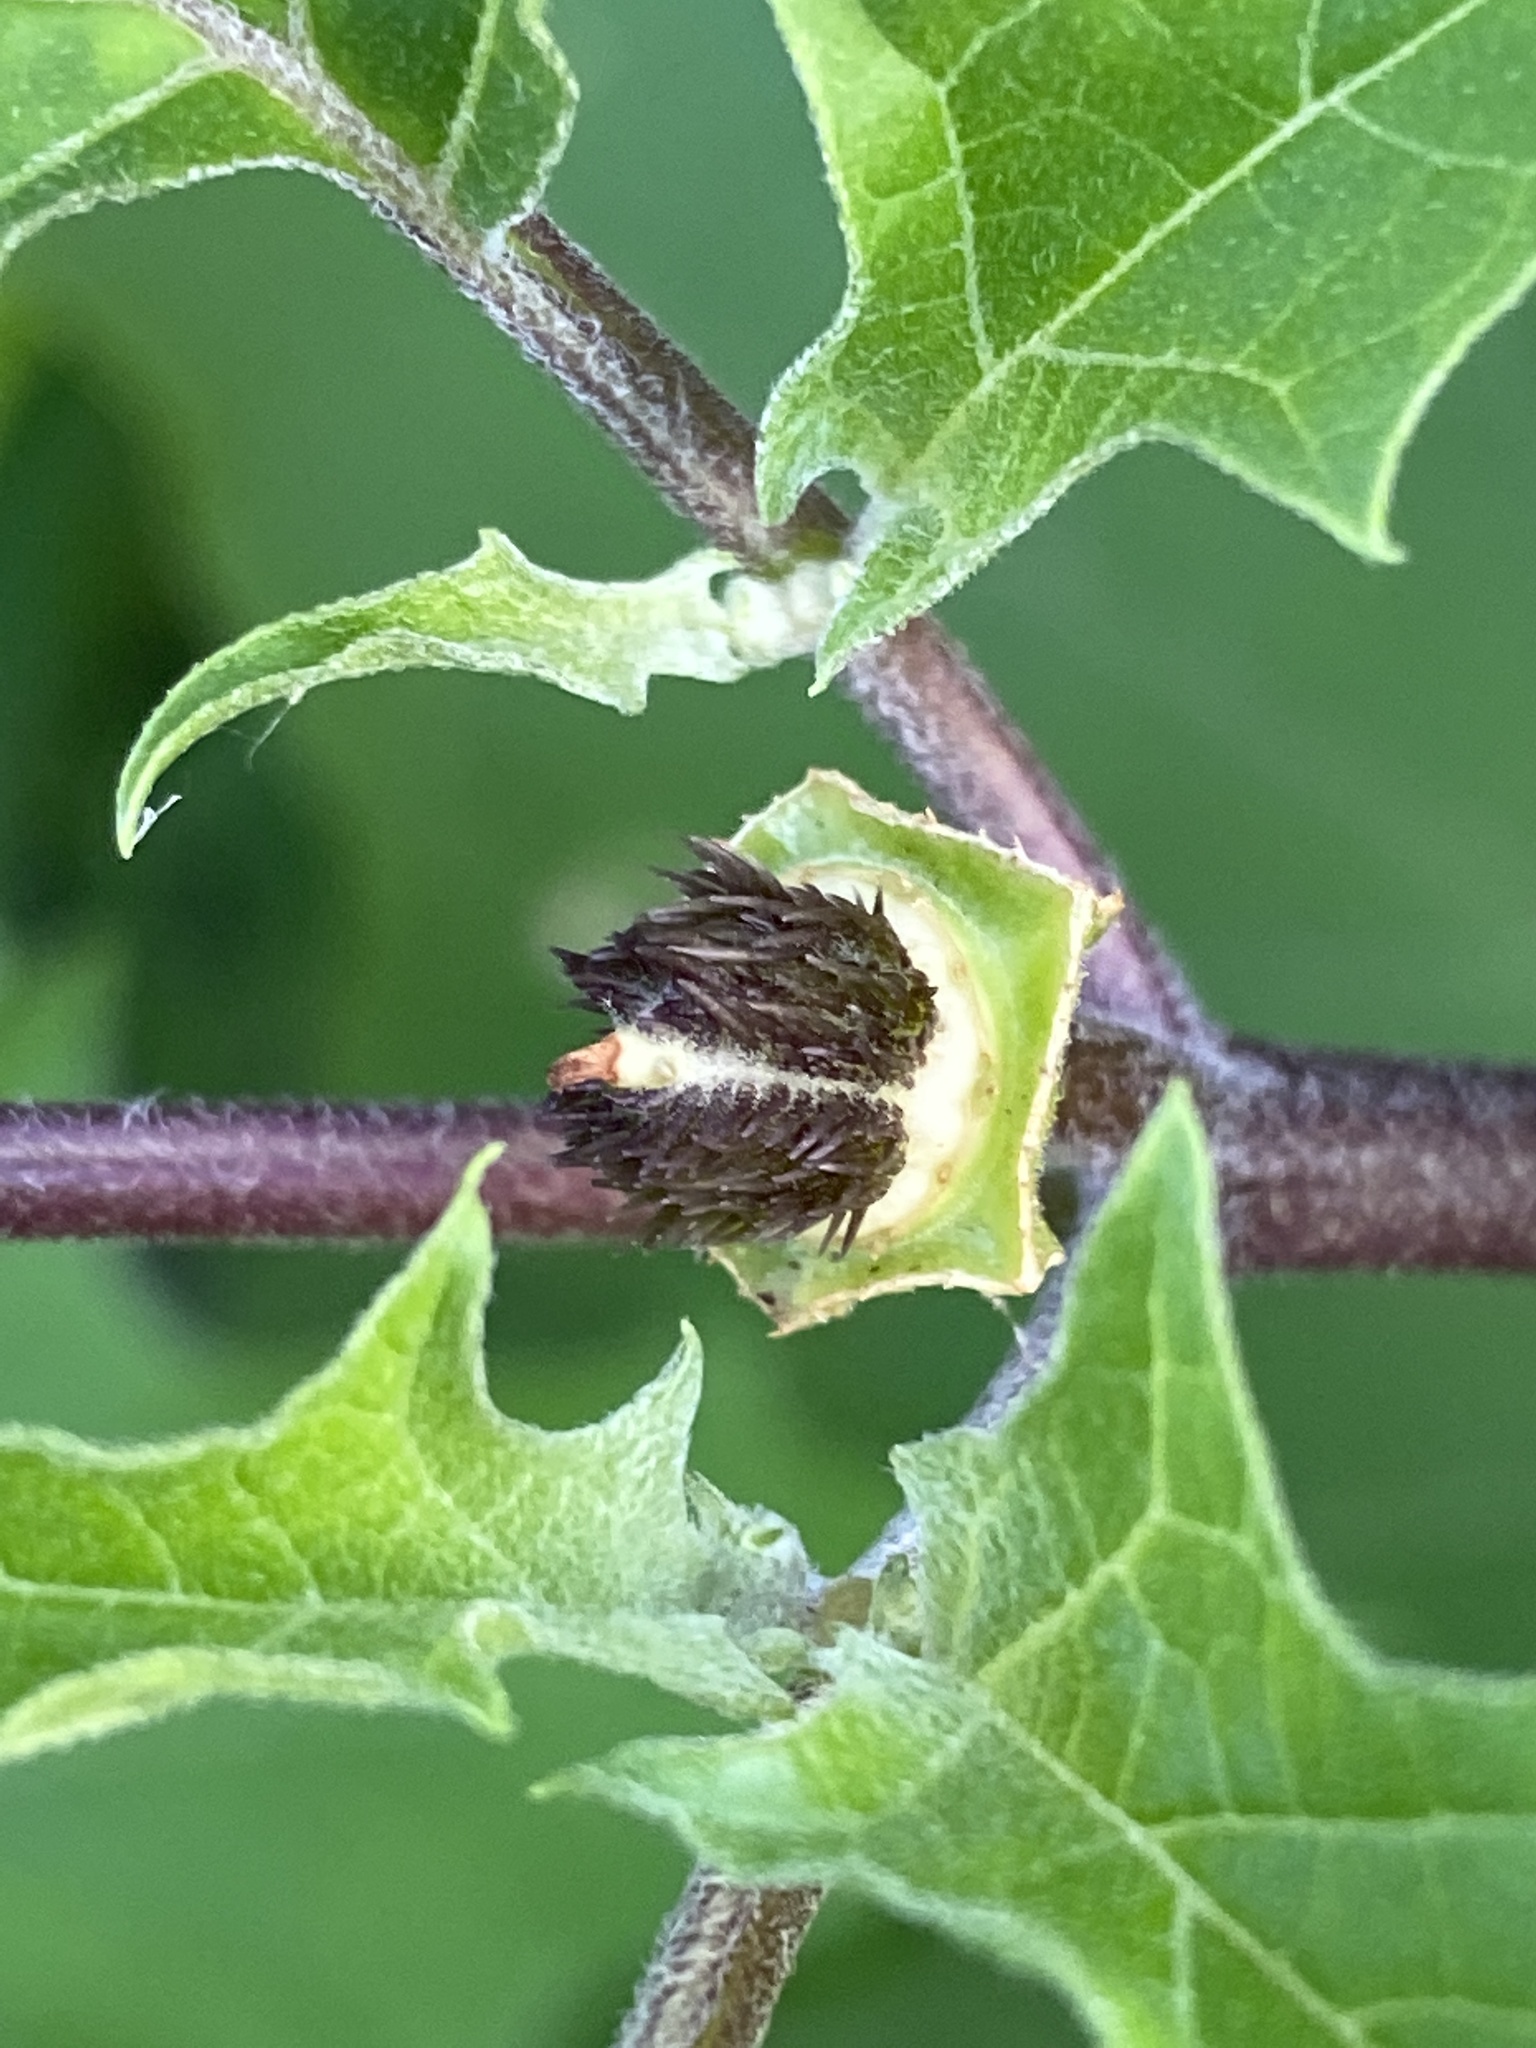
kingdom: Plantae
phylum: Tracheophyta
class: Magnoliopsida
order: Solanales
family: Solanaceae
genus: Datura
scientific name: Datura stramonium
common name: Thorn-apple
